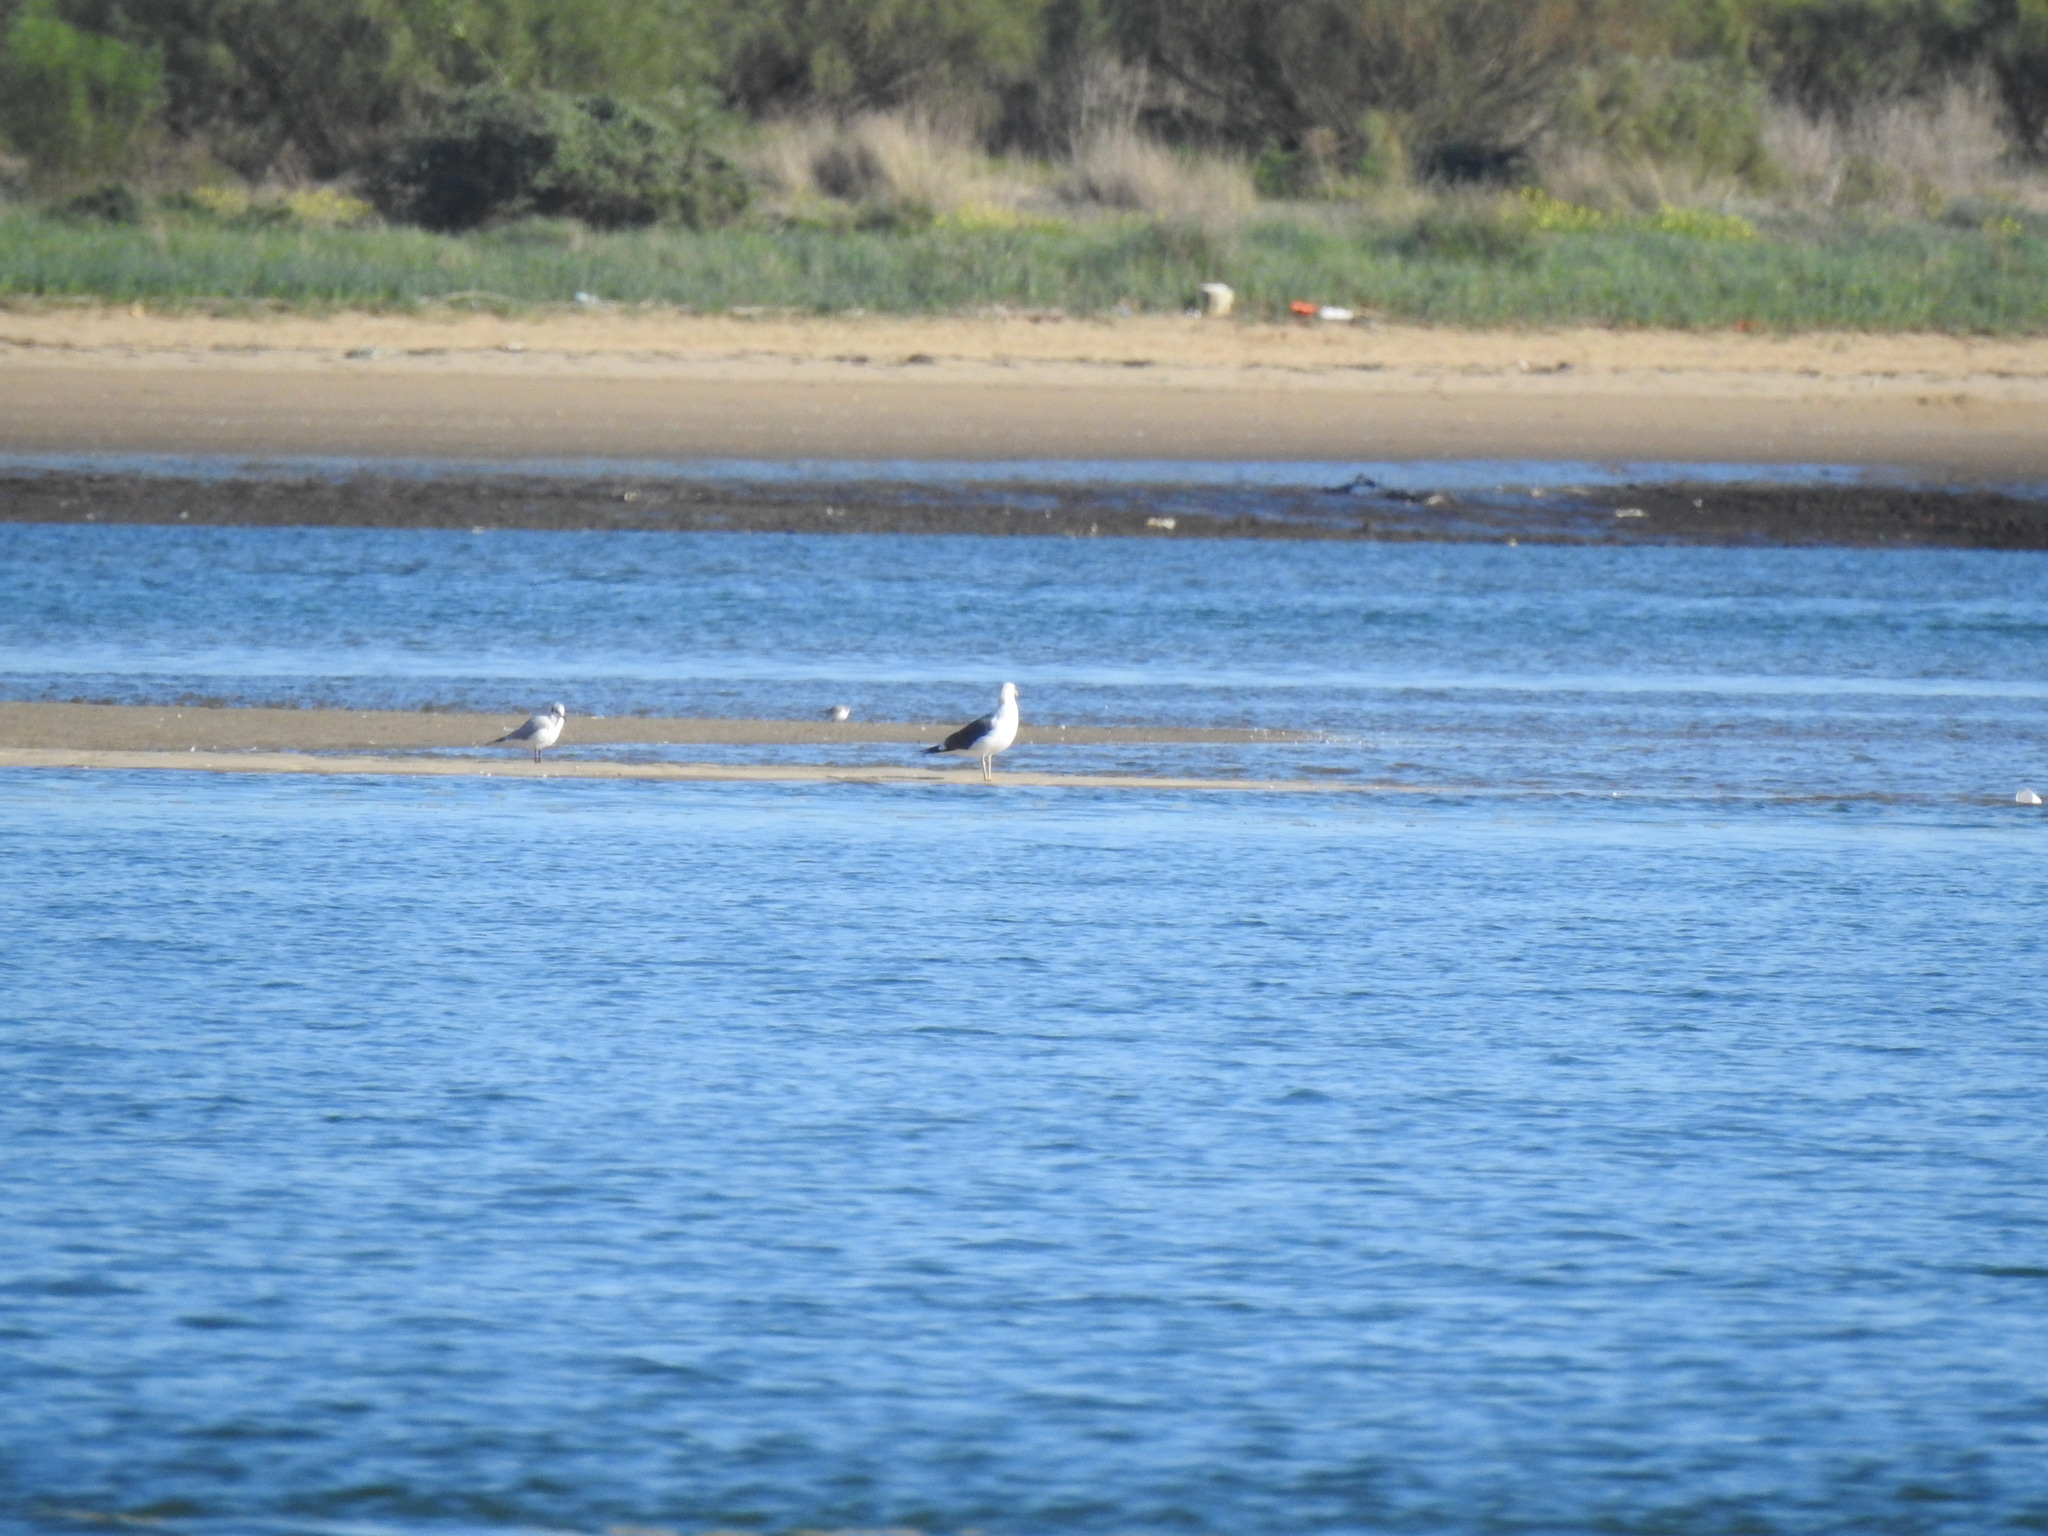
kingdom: Animalia
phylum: Chordata
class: Aves
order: Charadriiformes
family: Laridae
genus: Chroicocephalus
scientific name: Chroicocephalus ridibundus
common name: Black-headed gull
